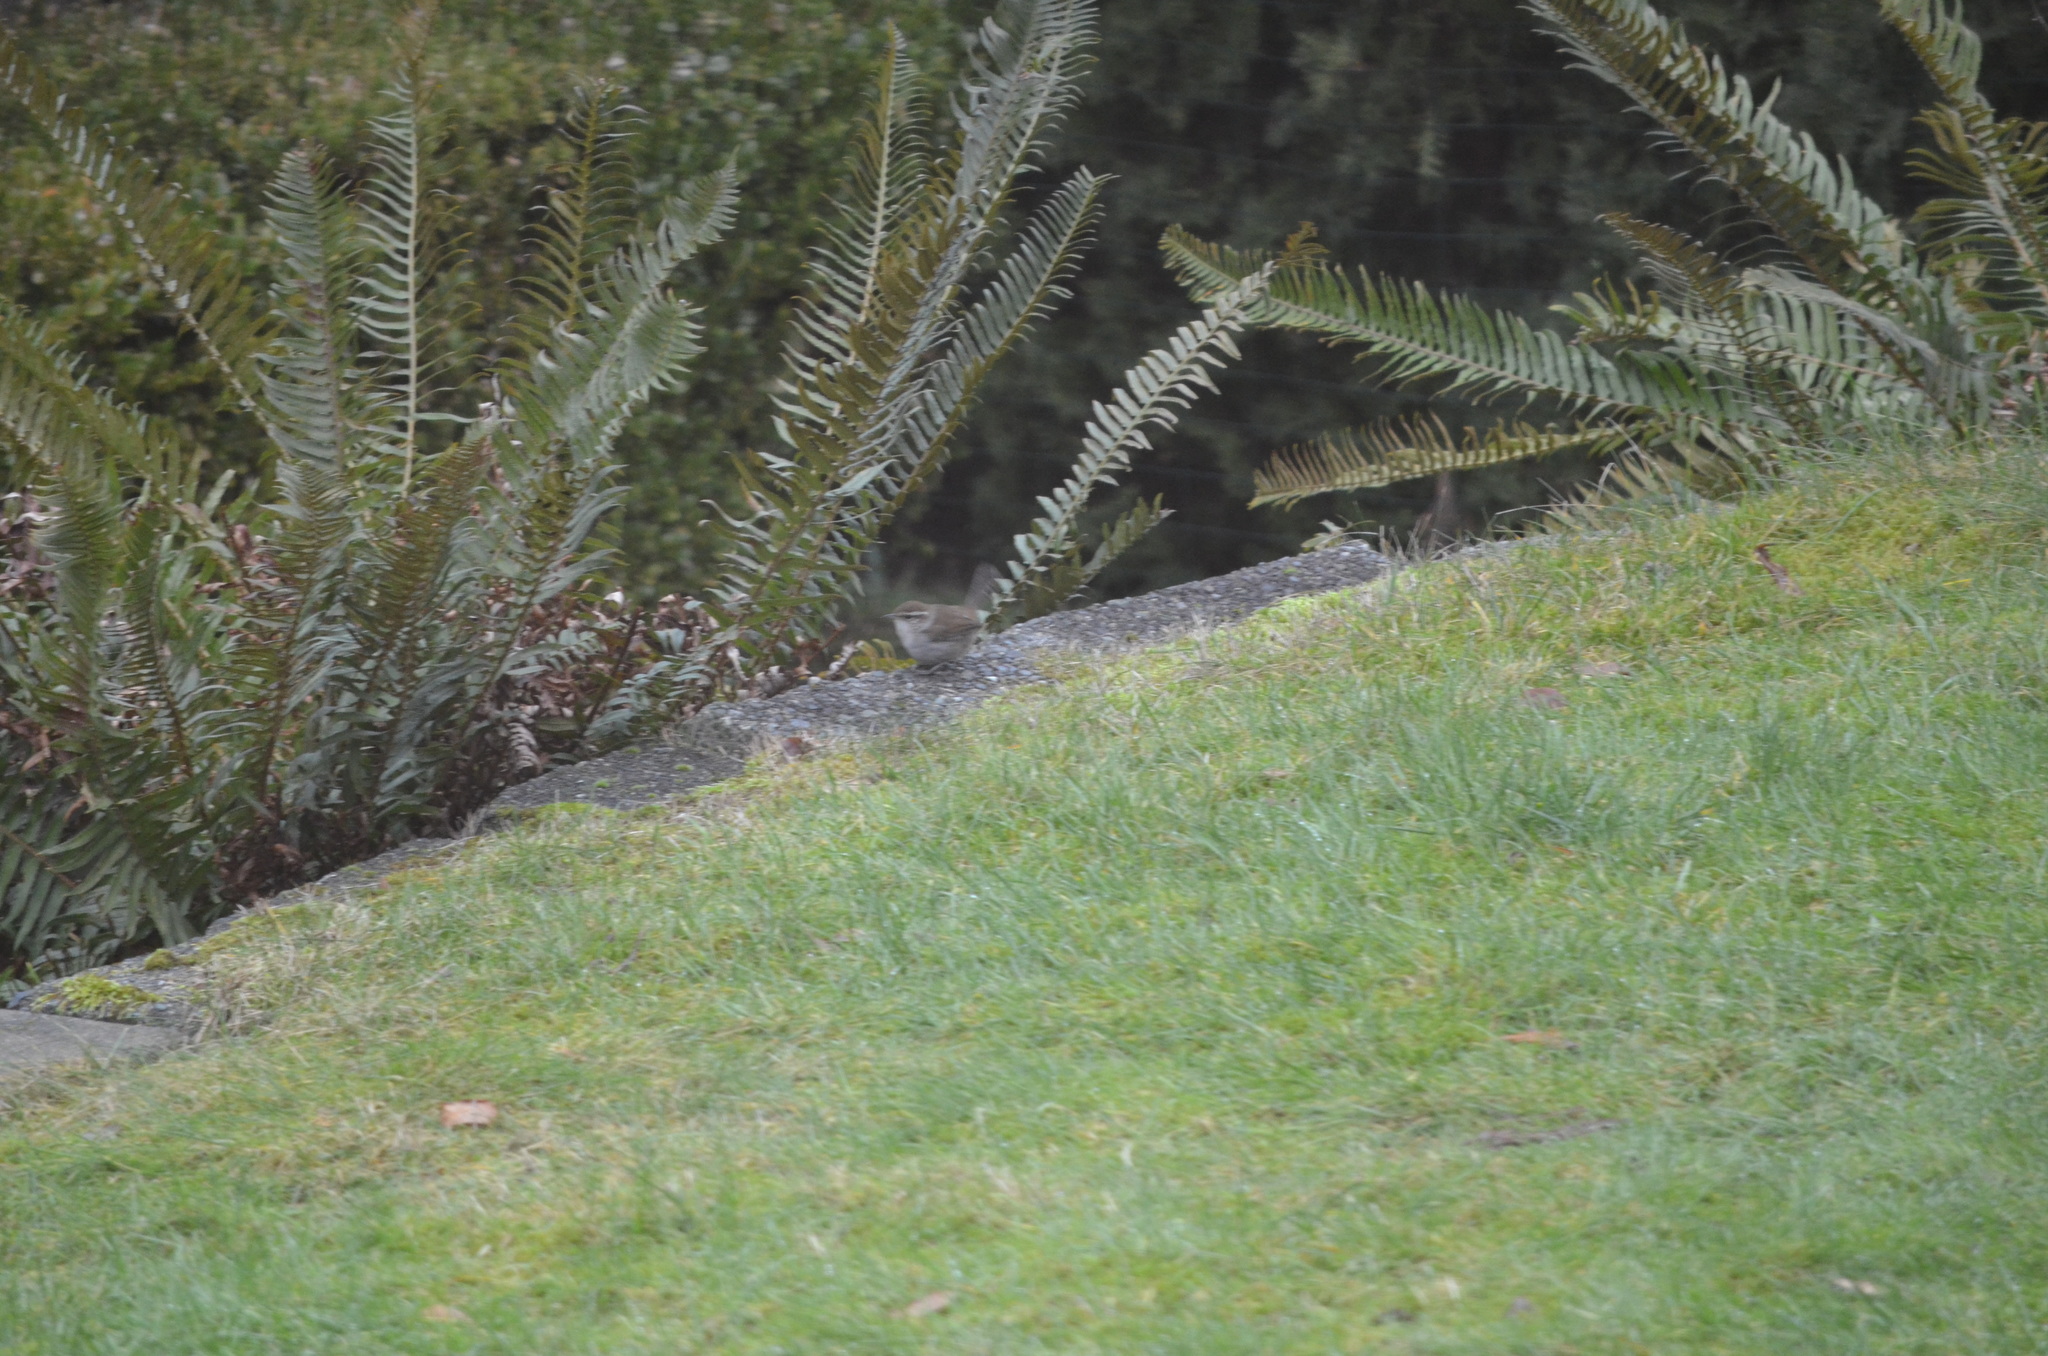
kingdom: Animalia
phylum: Chordata
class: Aves
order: Passeriformes
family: Troglodytidae
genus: Thryomanes
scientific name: Thryomanes bewickii
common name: Bewick's wren
